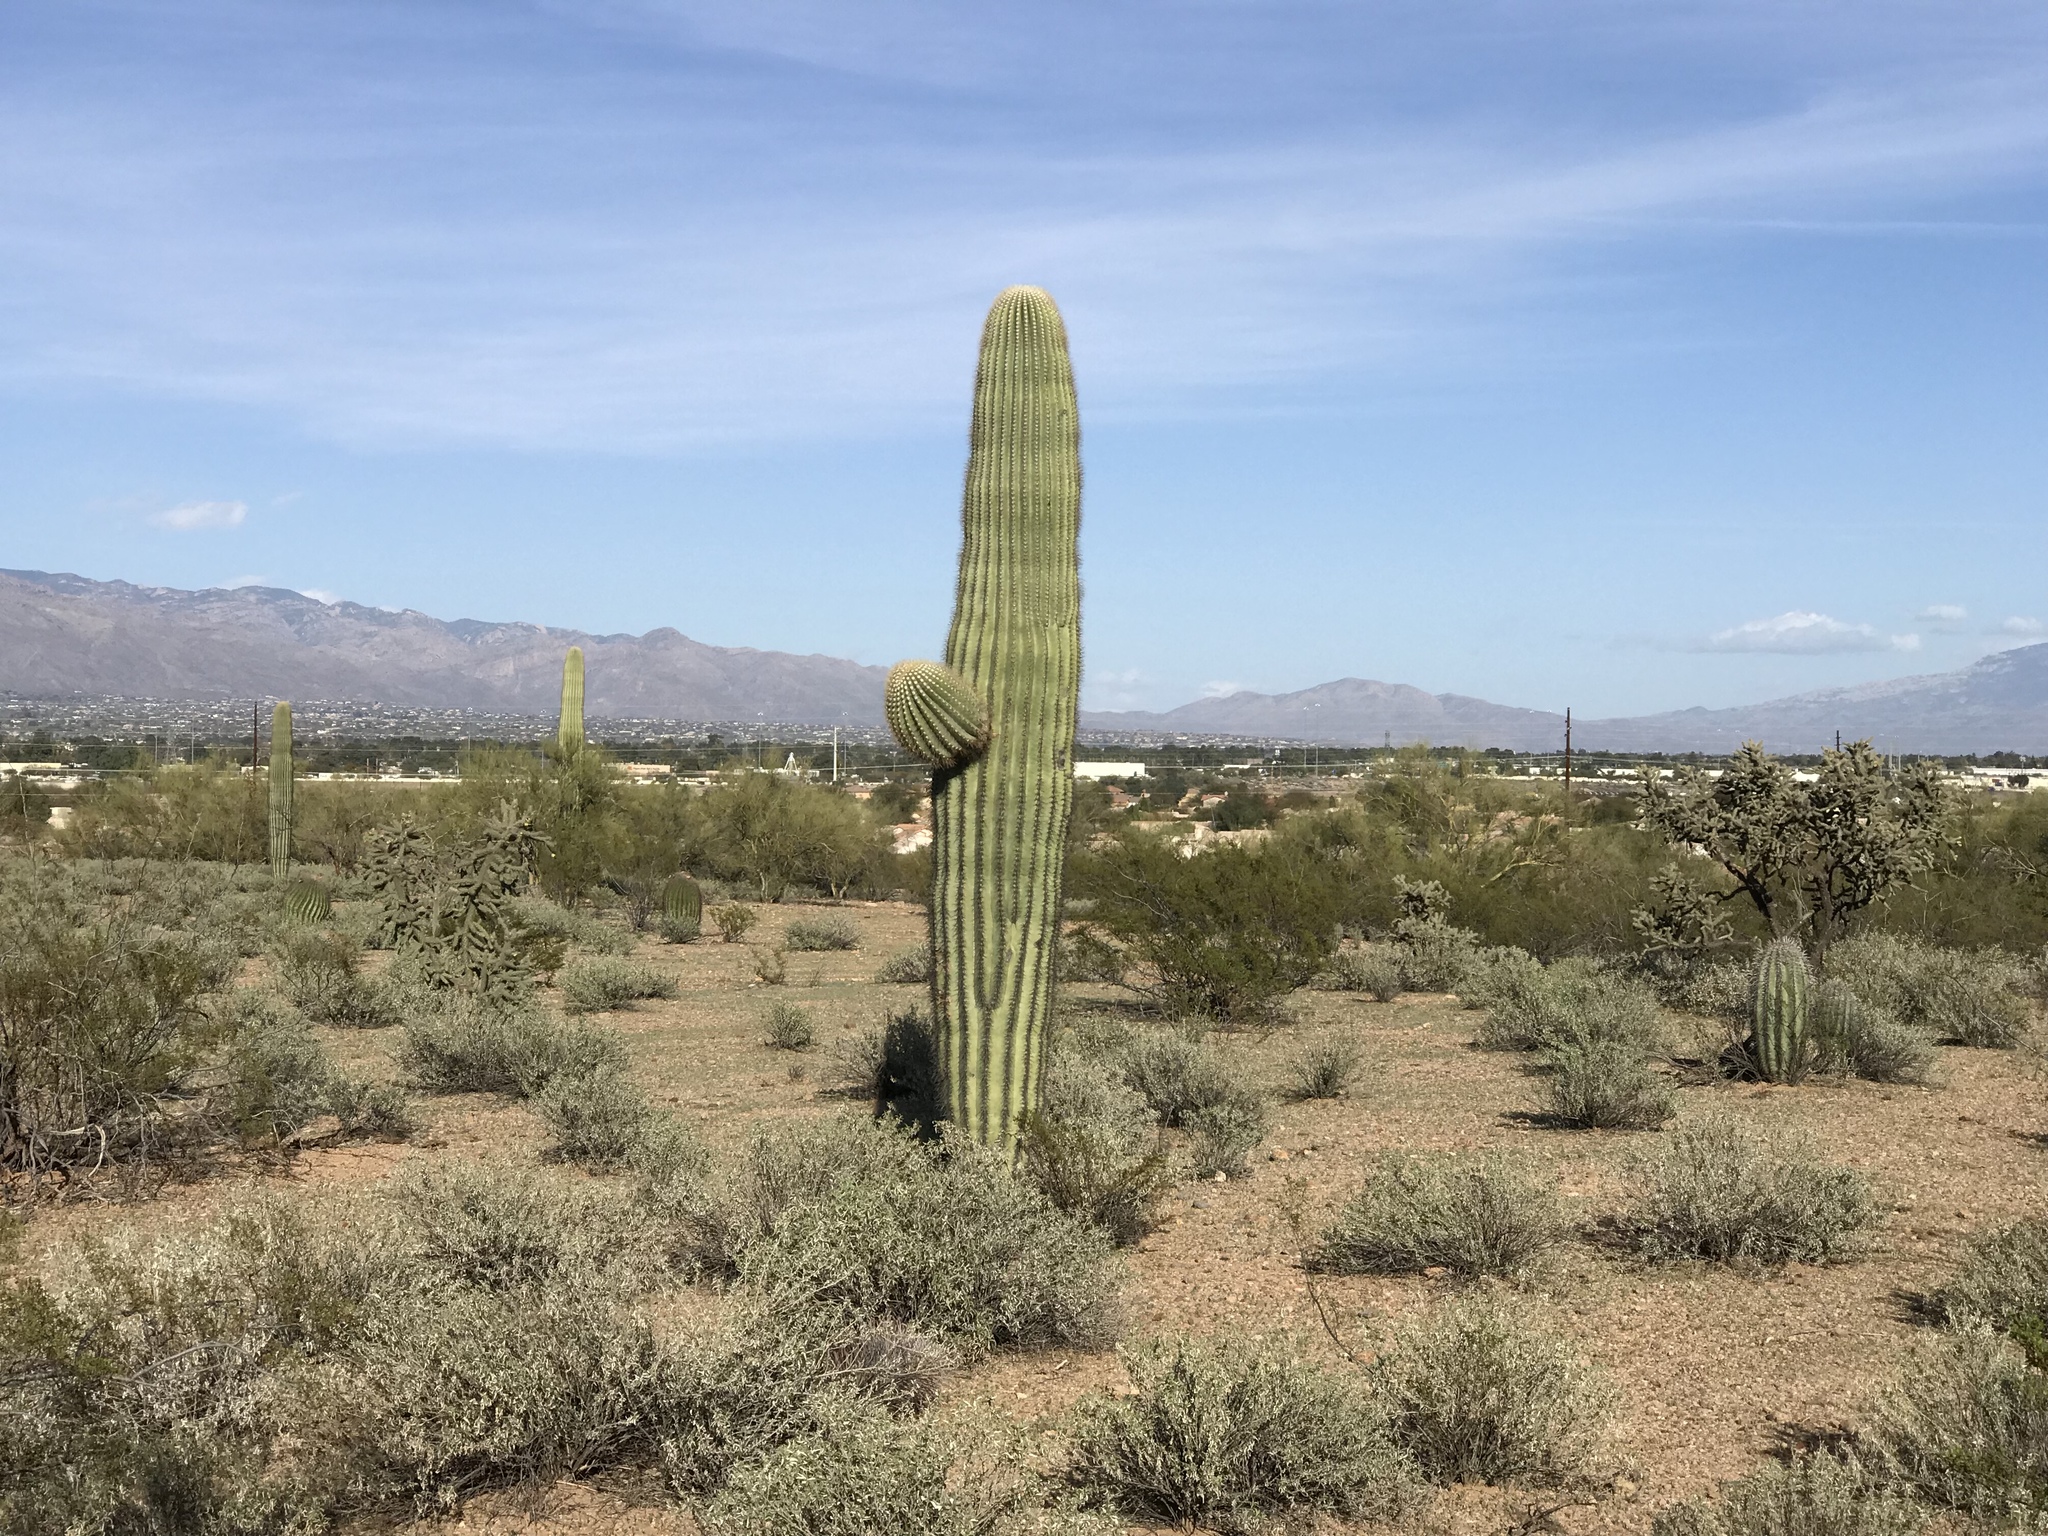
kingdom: Plantae
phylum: Tracheophyta
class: Magnoliopsida
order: Caryophyllales
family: Cactaceae
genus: Carnegiea
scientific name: Carnegiea gigantea
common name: Saguaro
